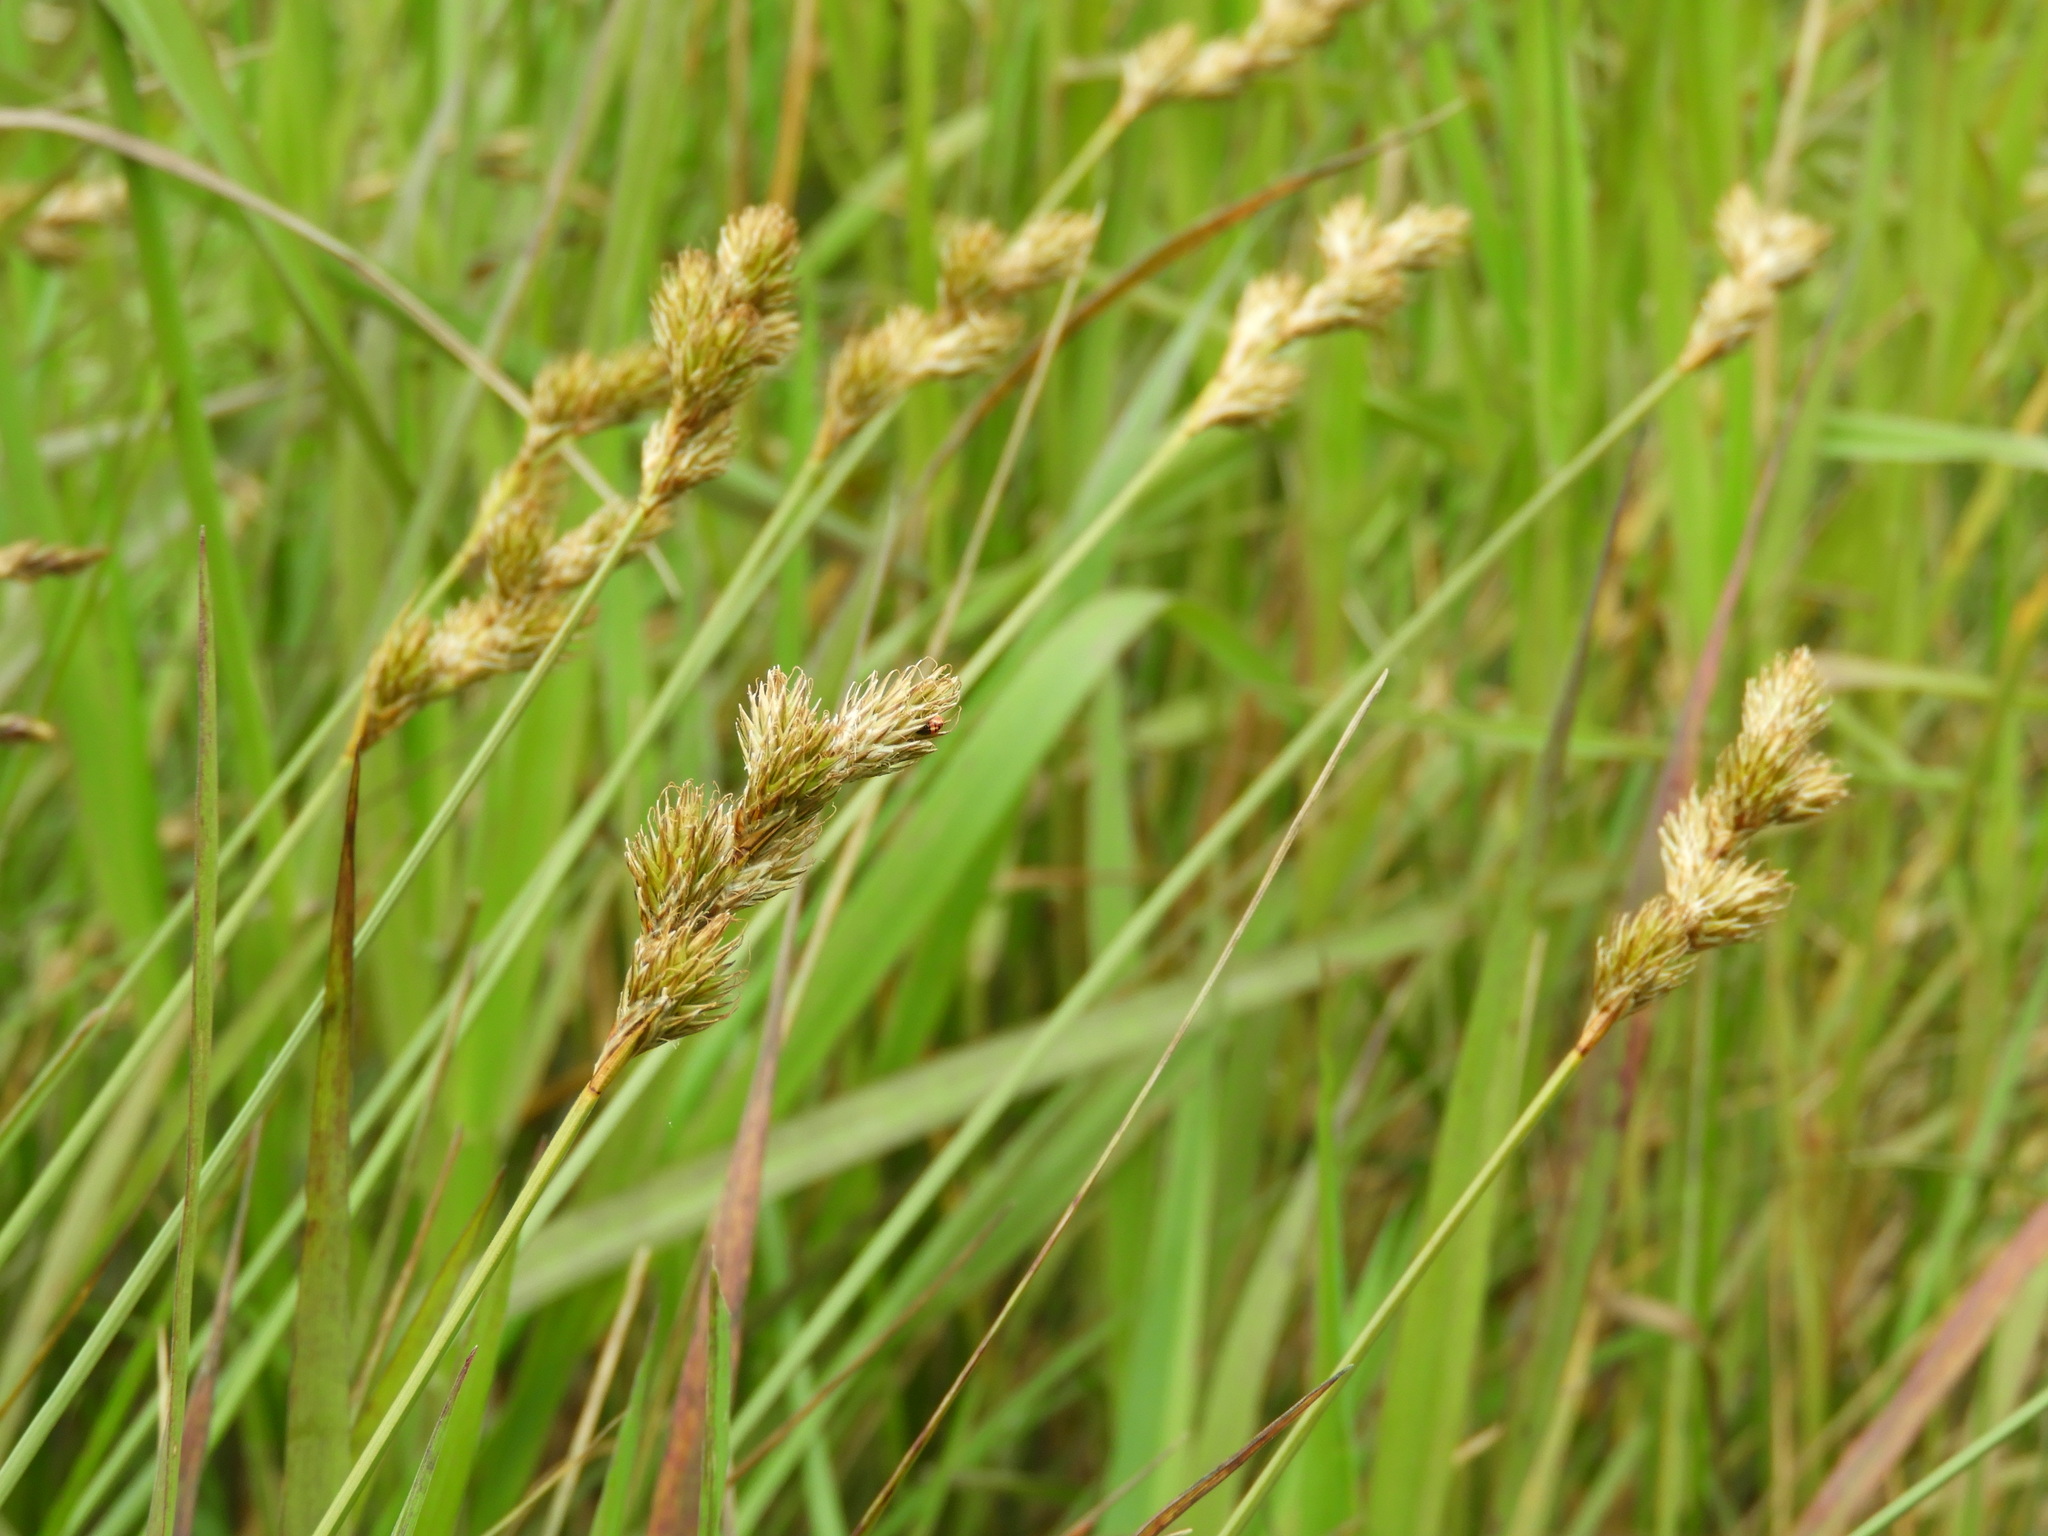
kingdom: Plantae
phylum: Tracheophyta
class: Liliopsida
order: Poales
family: Cyperaceae
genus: Carex
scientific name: Carex leporina
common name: Oval sedge
